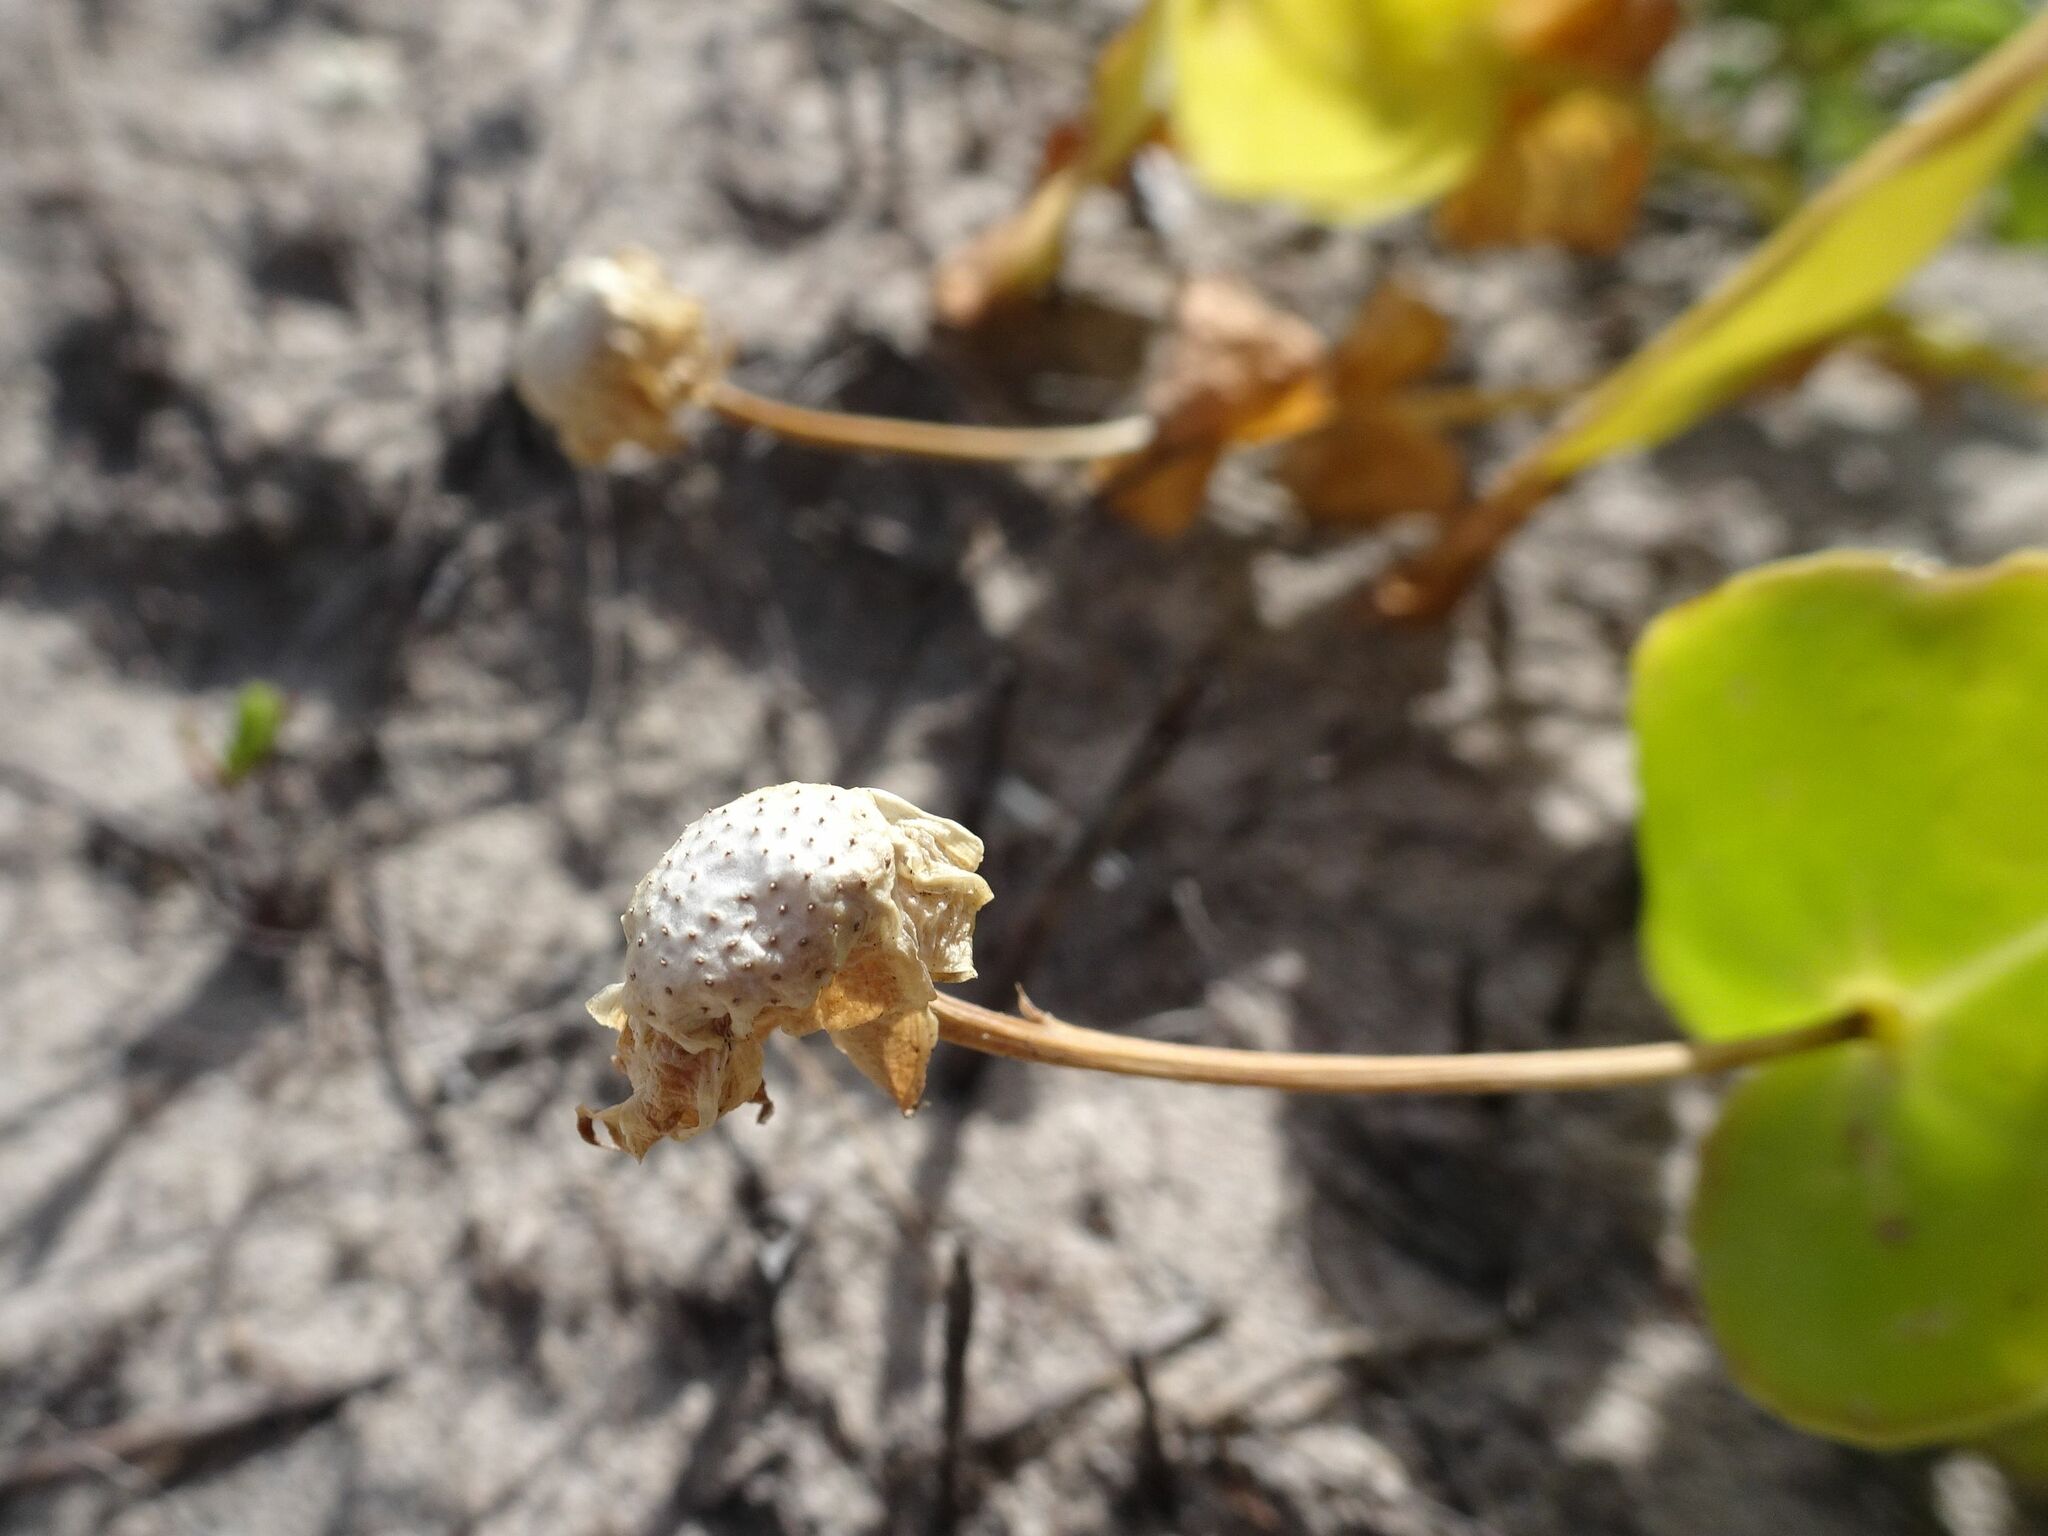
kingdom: Plantae
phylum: Tracheophyta
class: Magnoliopsida
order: Asterales
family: Asteraceae
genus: Othonna
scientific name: Othonna undulosa
